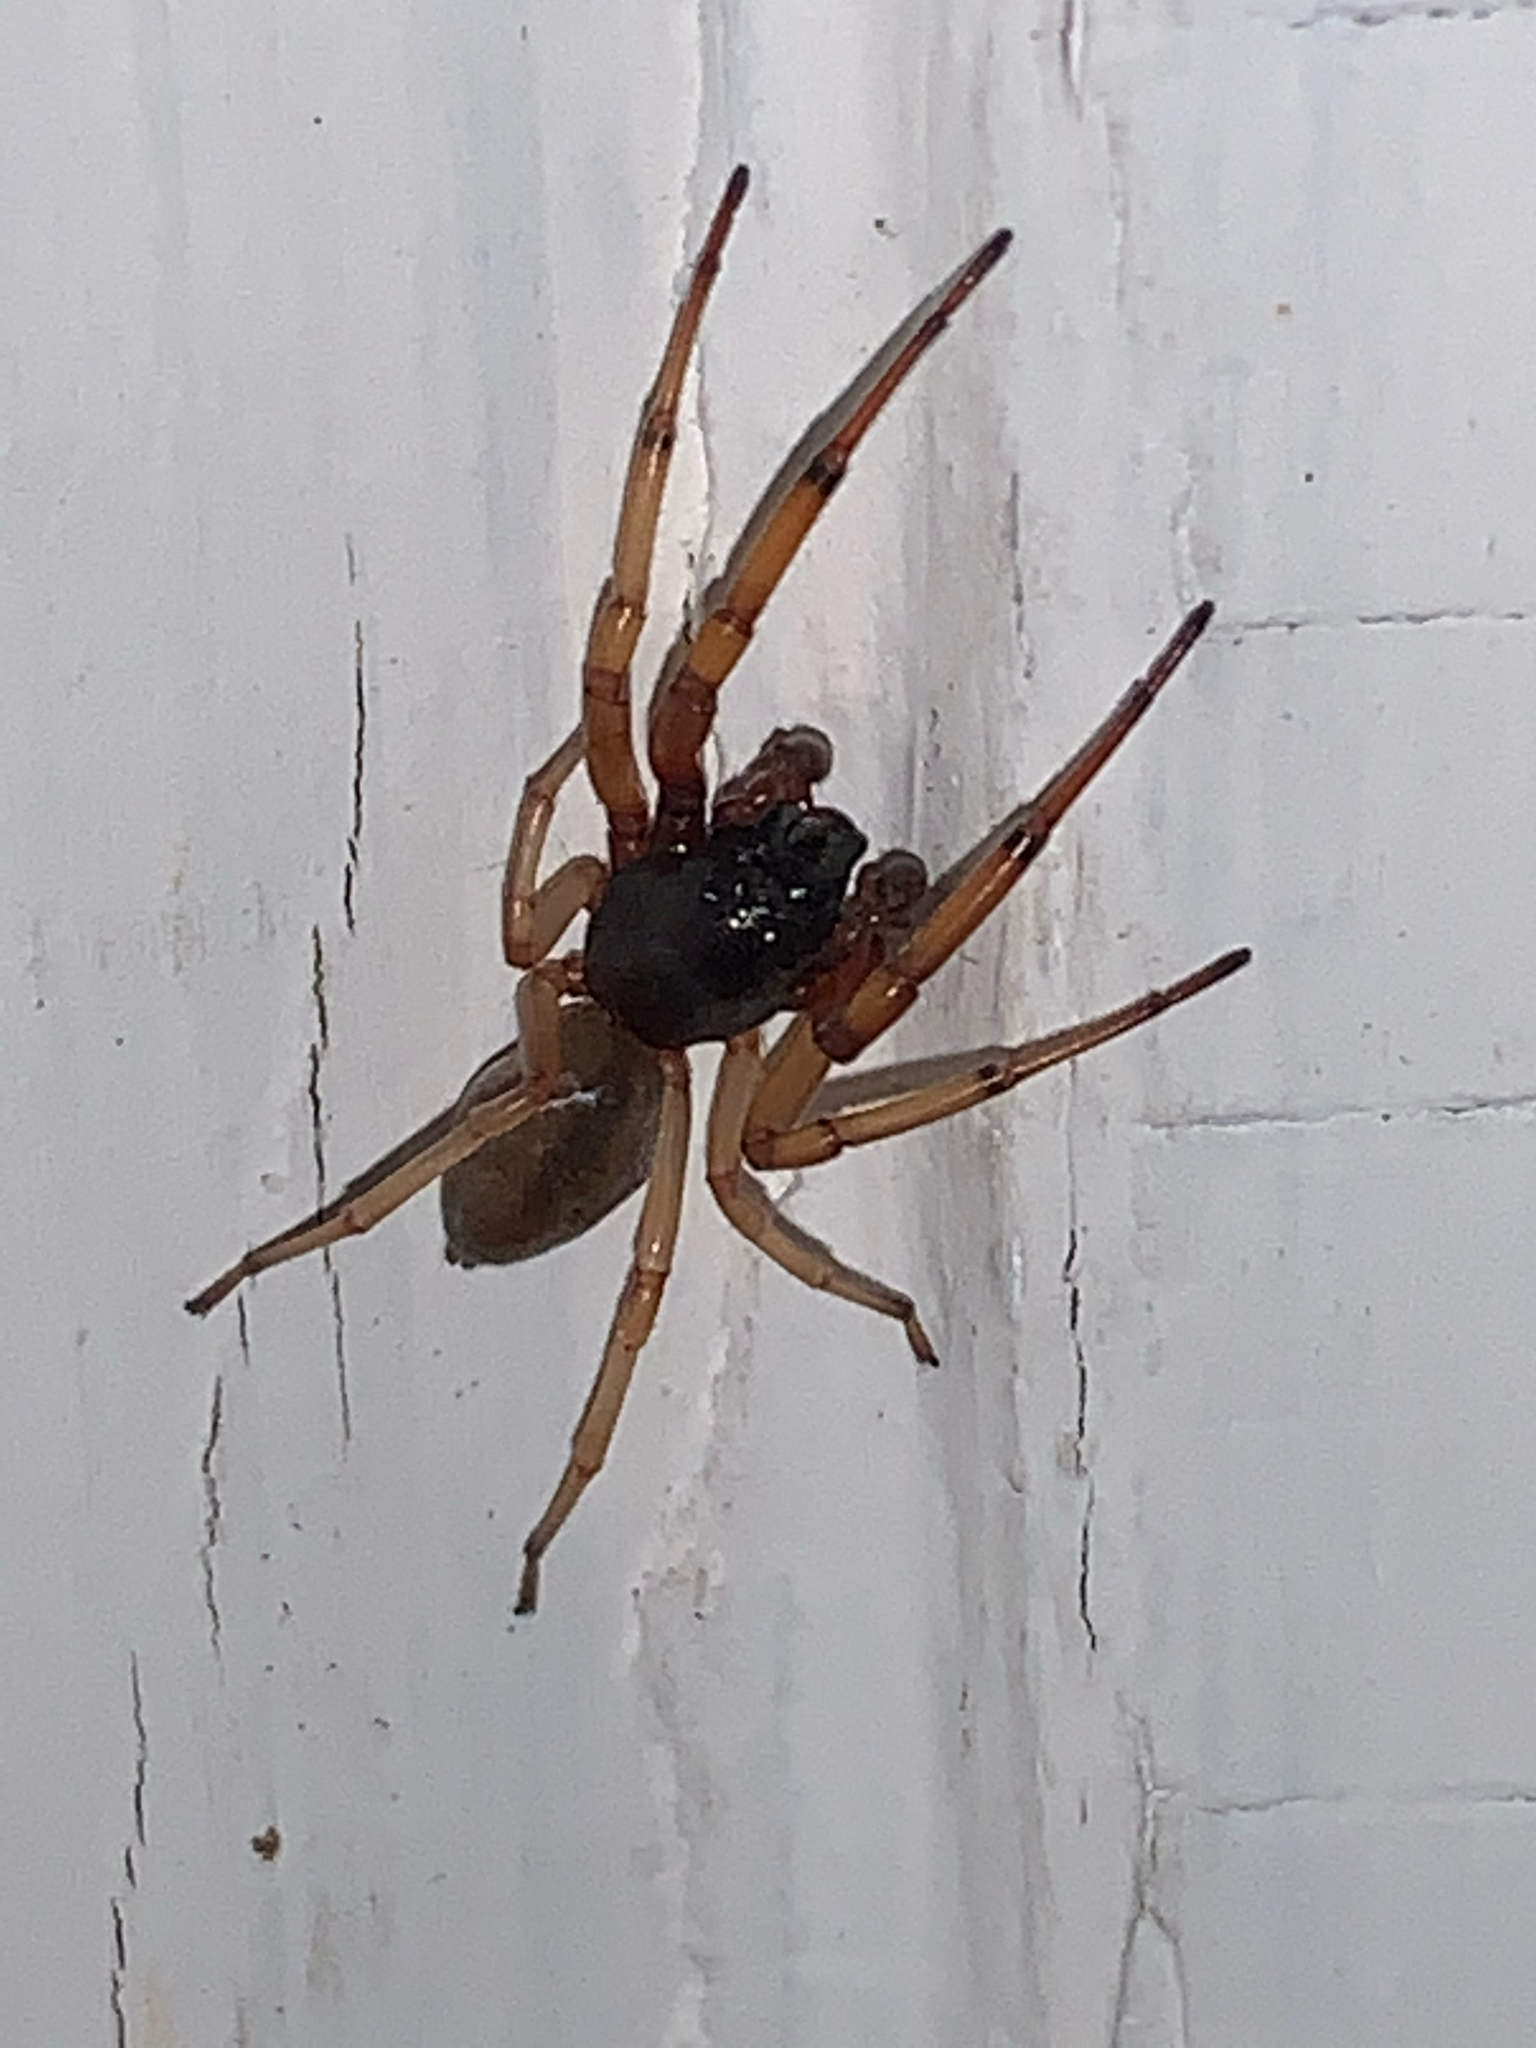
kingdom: Animalia
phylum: Arthropoda
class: Arachnida
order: Araneae
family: Trachelidae
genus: Trachelas
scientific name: Trachelas tranquillus
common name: Broad-faced sac spider
